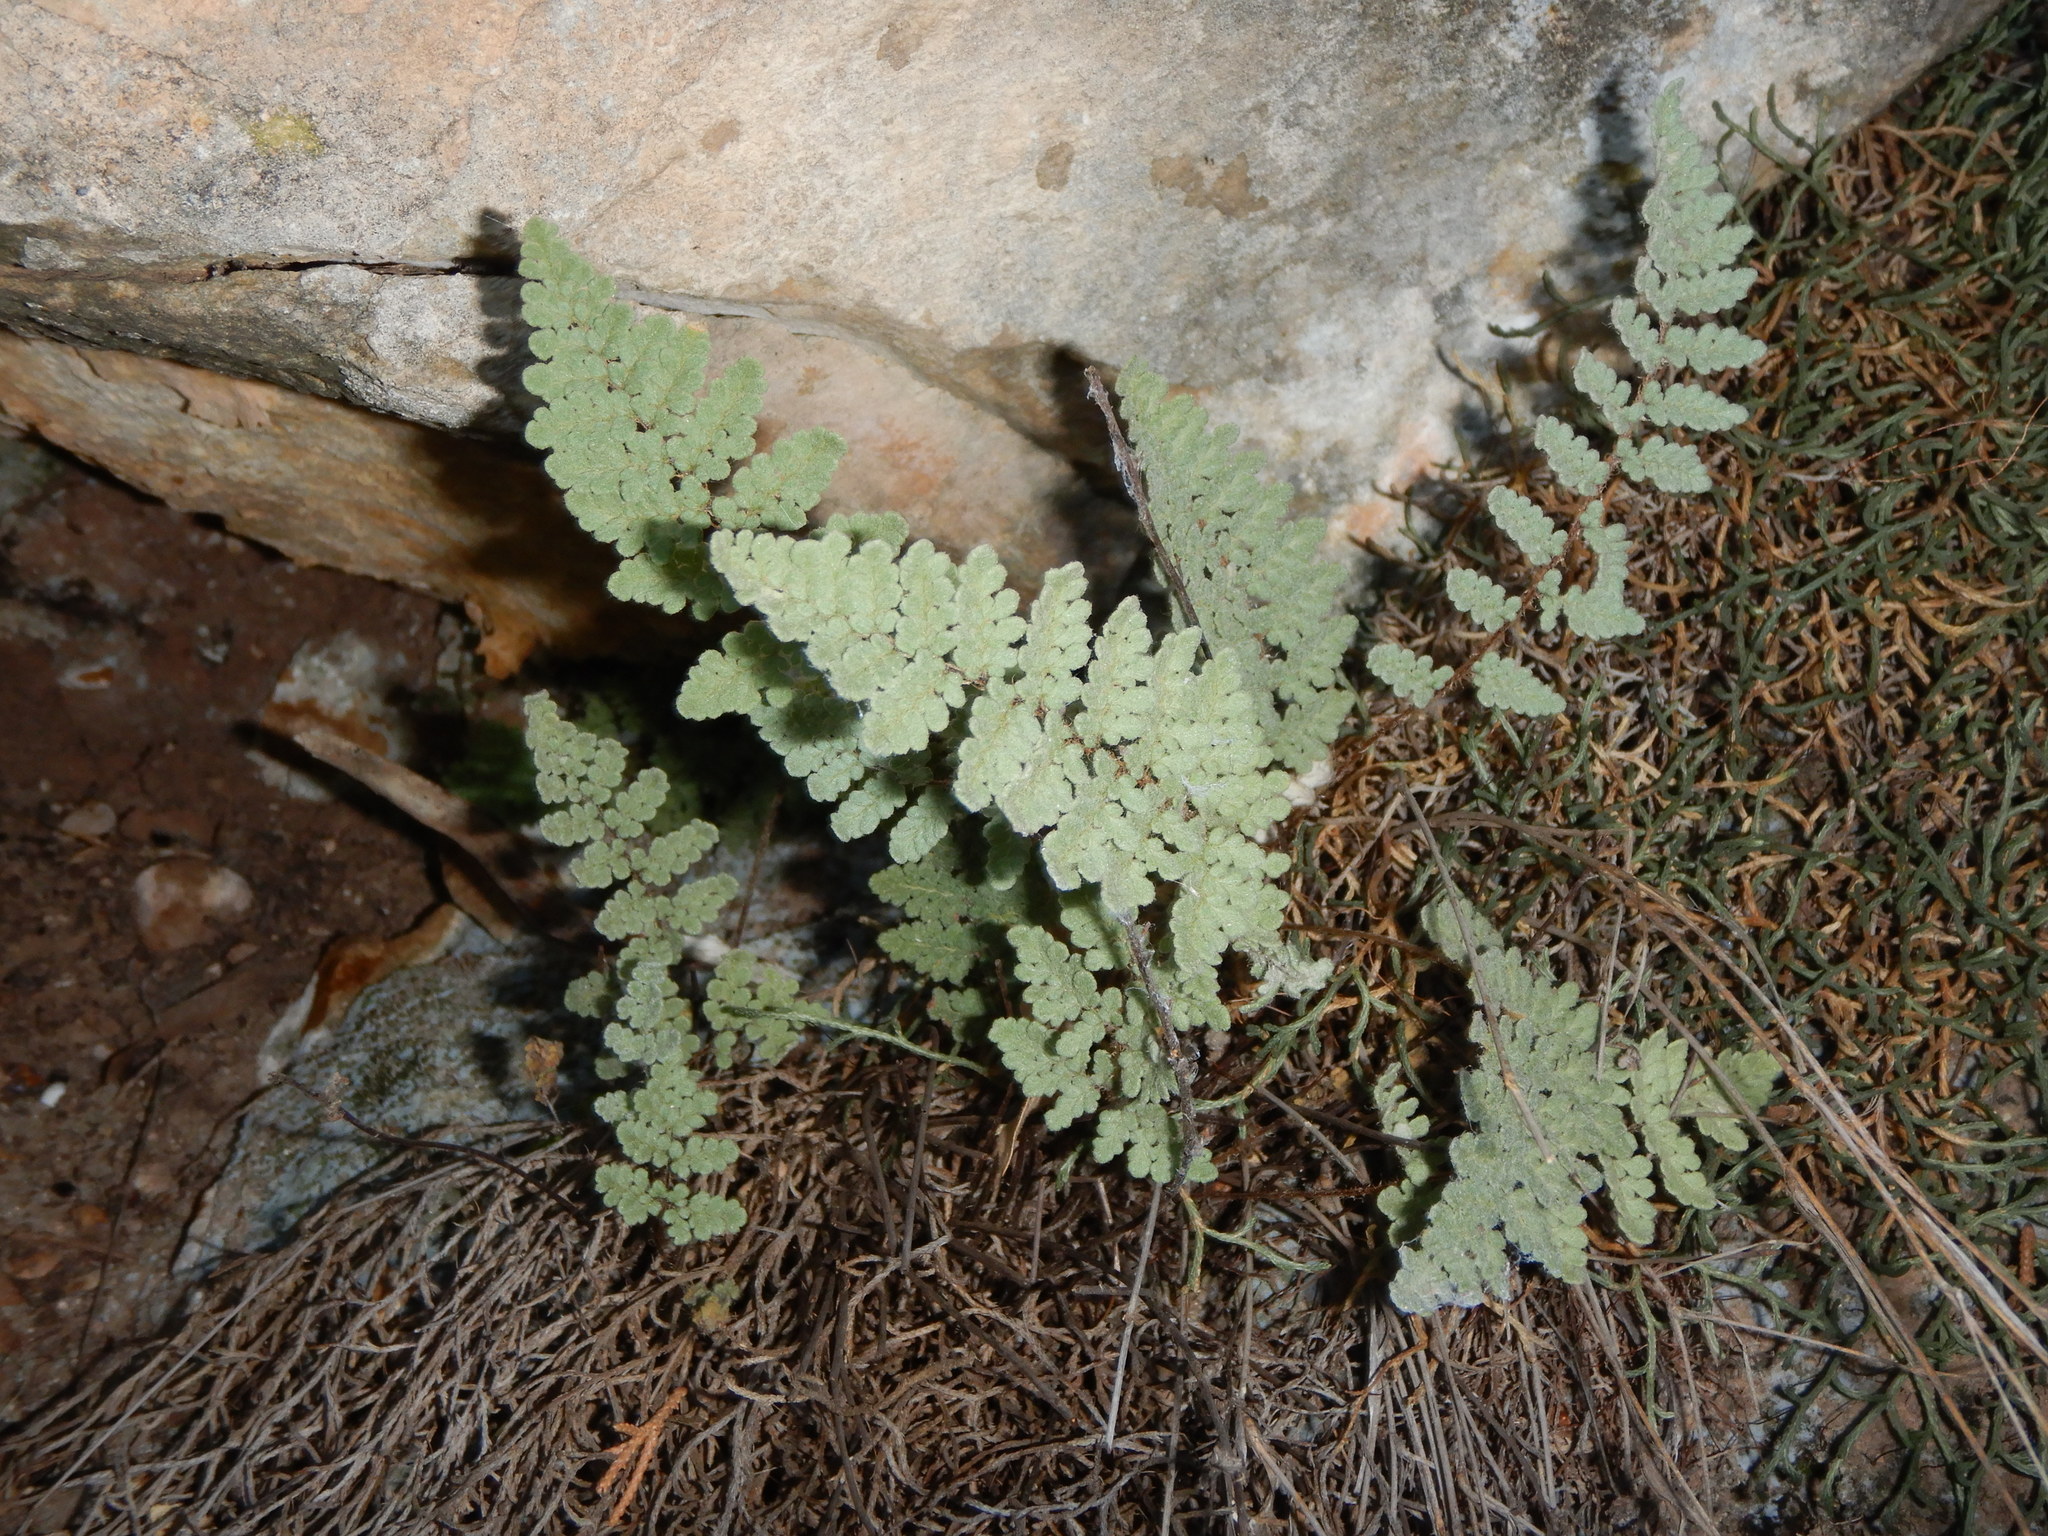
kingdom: Plantae
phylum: Tracheophyta
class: Polypodiopsida
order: Polypodiales
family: Pteridaceae
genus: Myriopteris
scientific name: Myriopteris rufa
